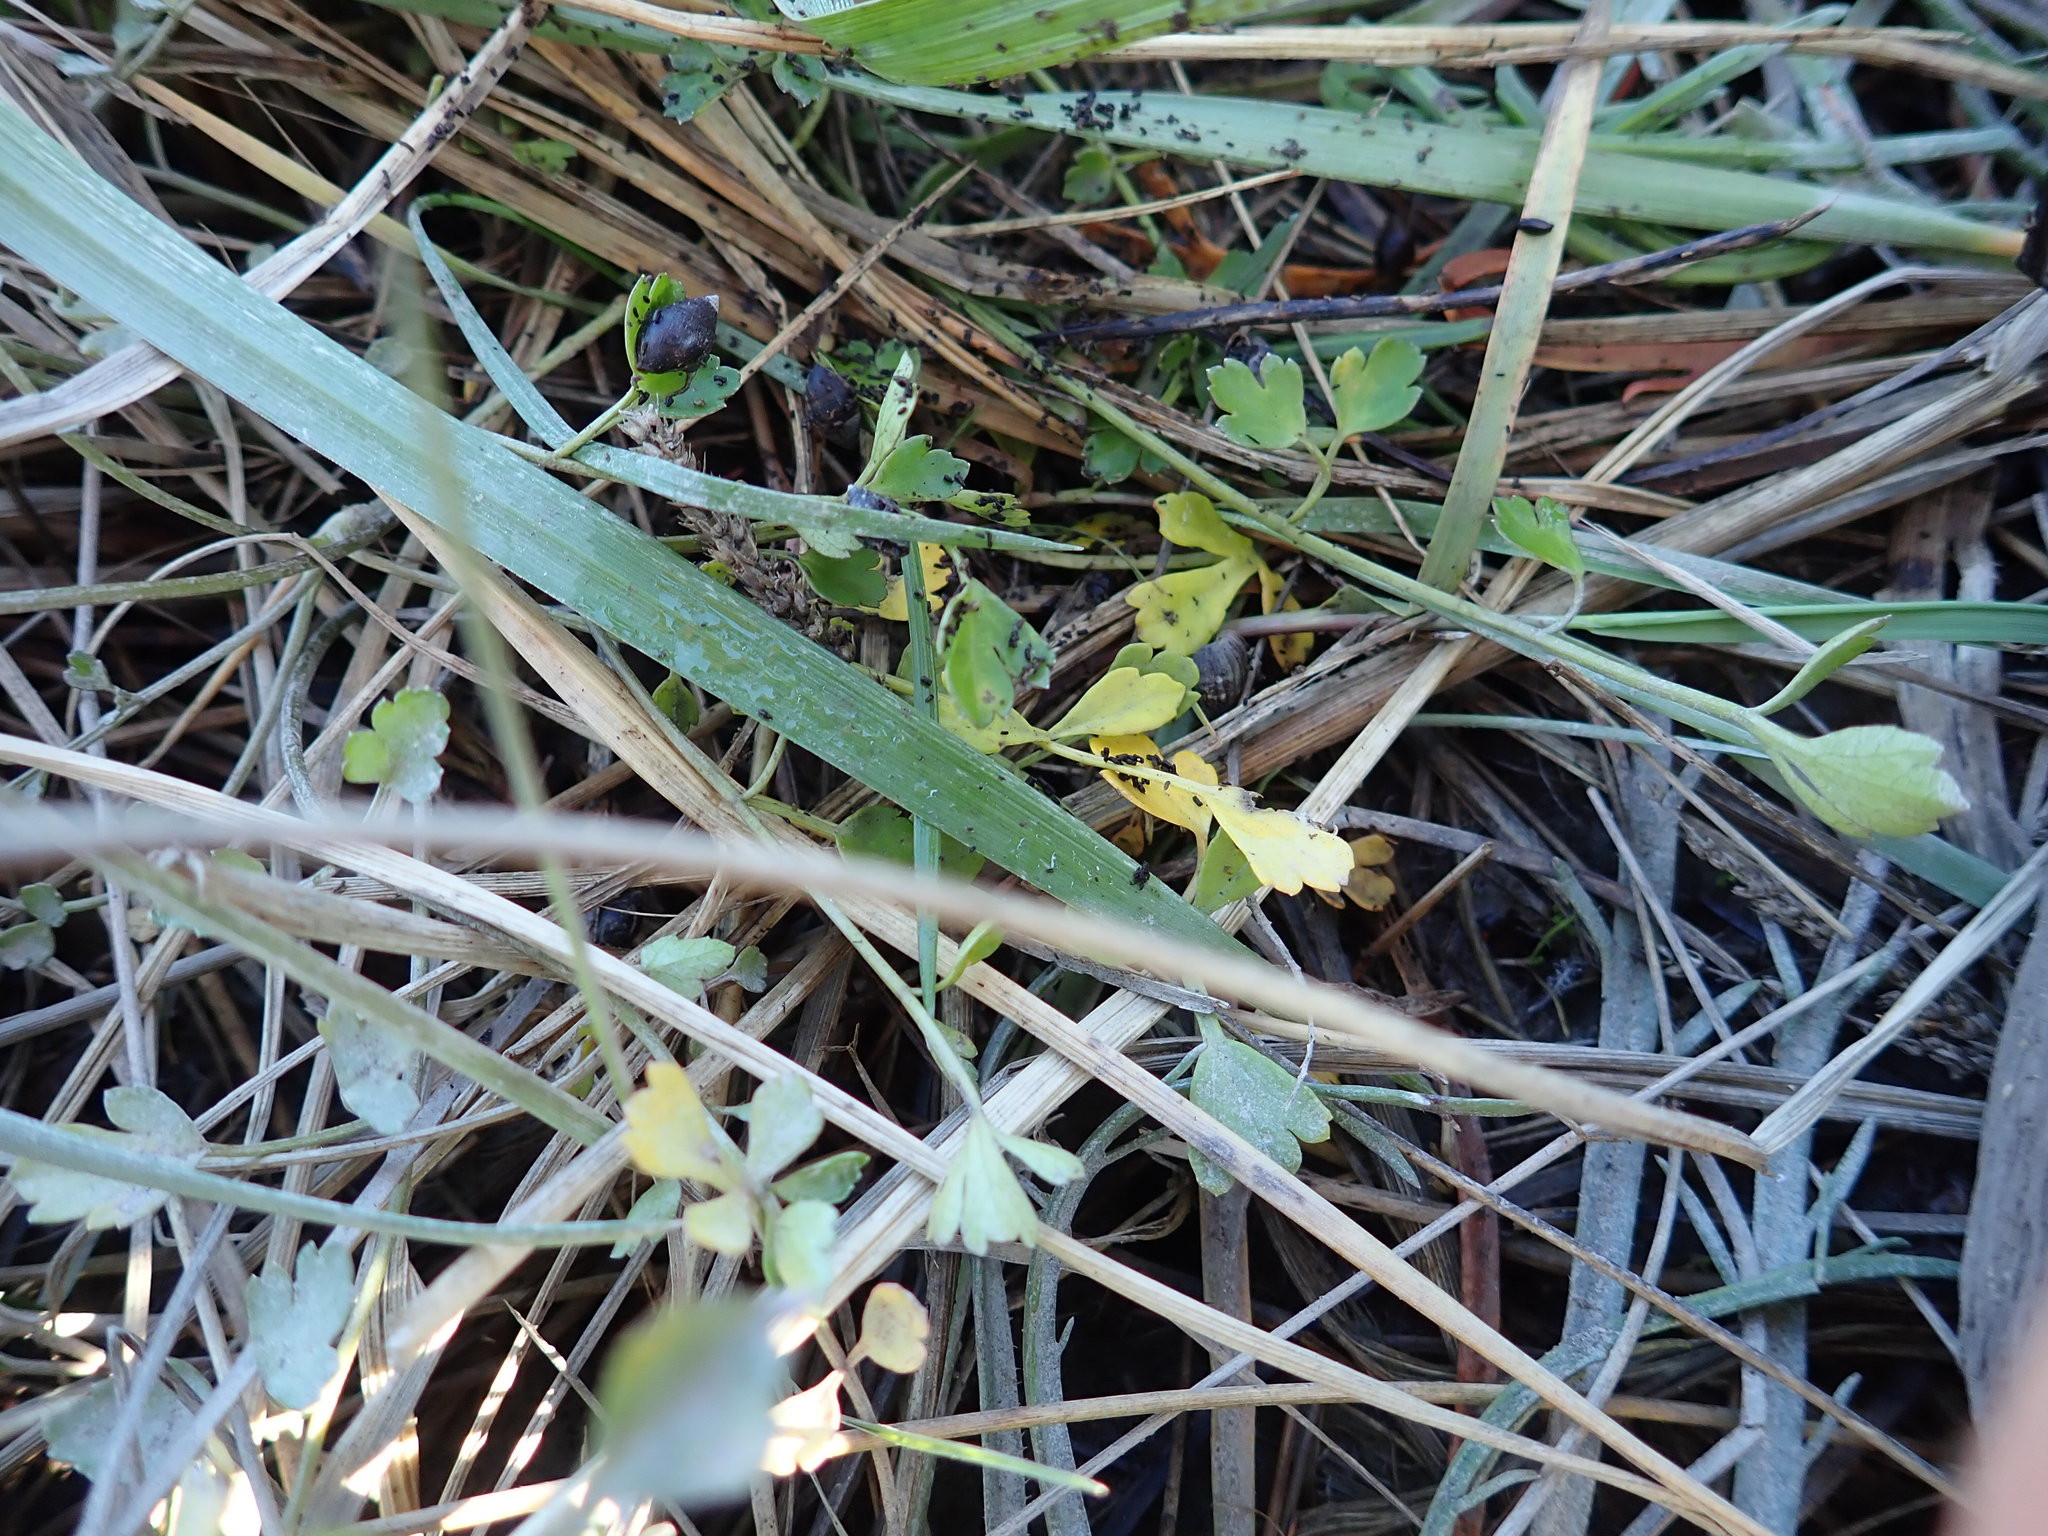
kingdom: Animalia
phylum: Mollusca
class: Gastropoda
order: Ellobiida
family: Ellobiidae
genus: Pleuroloba
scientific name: Pleuroloba costellaris
